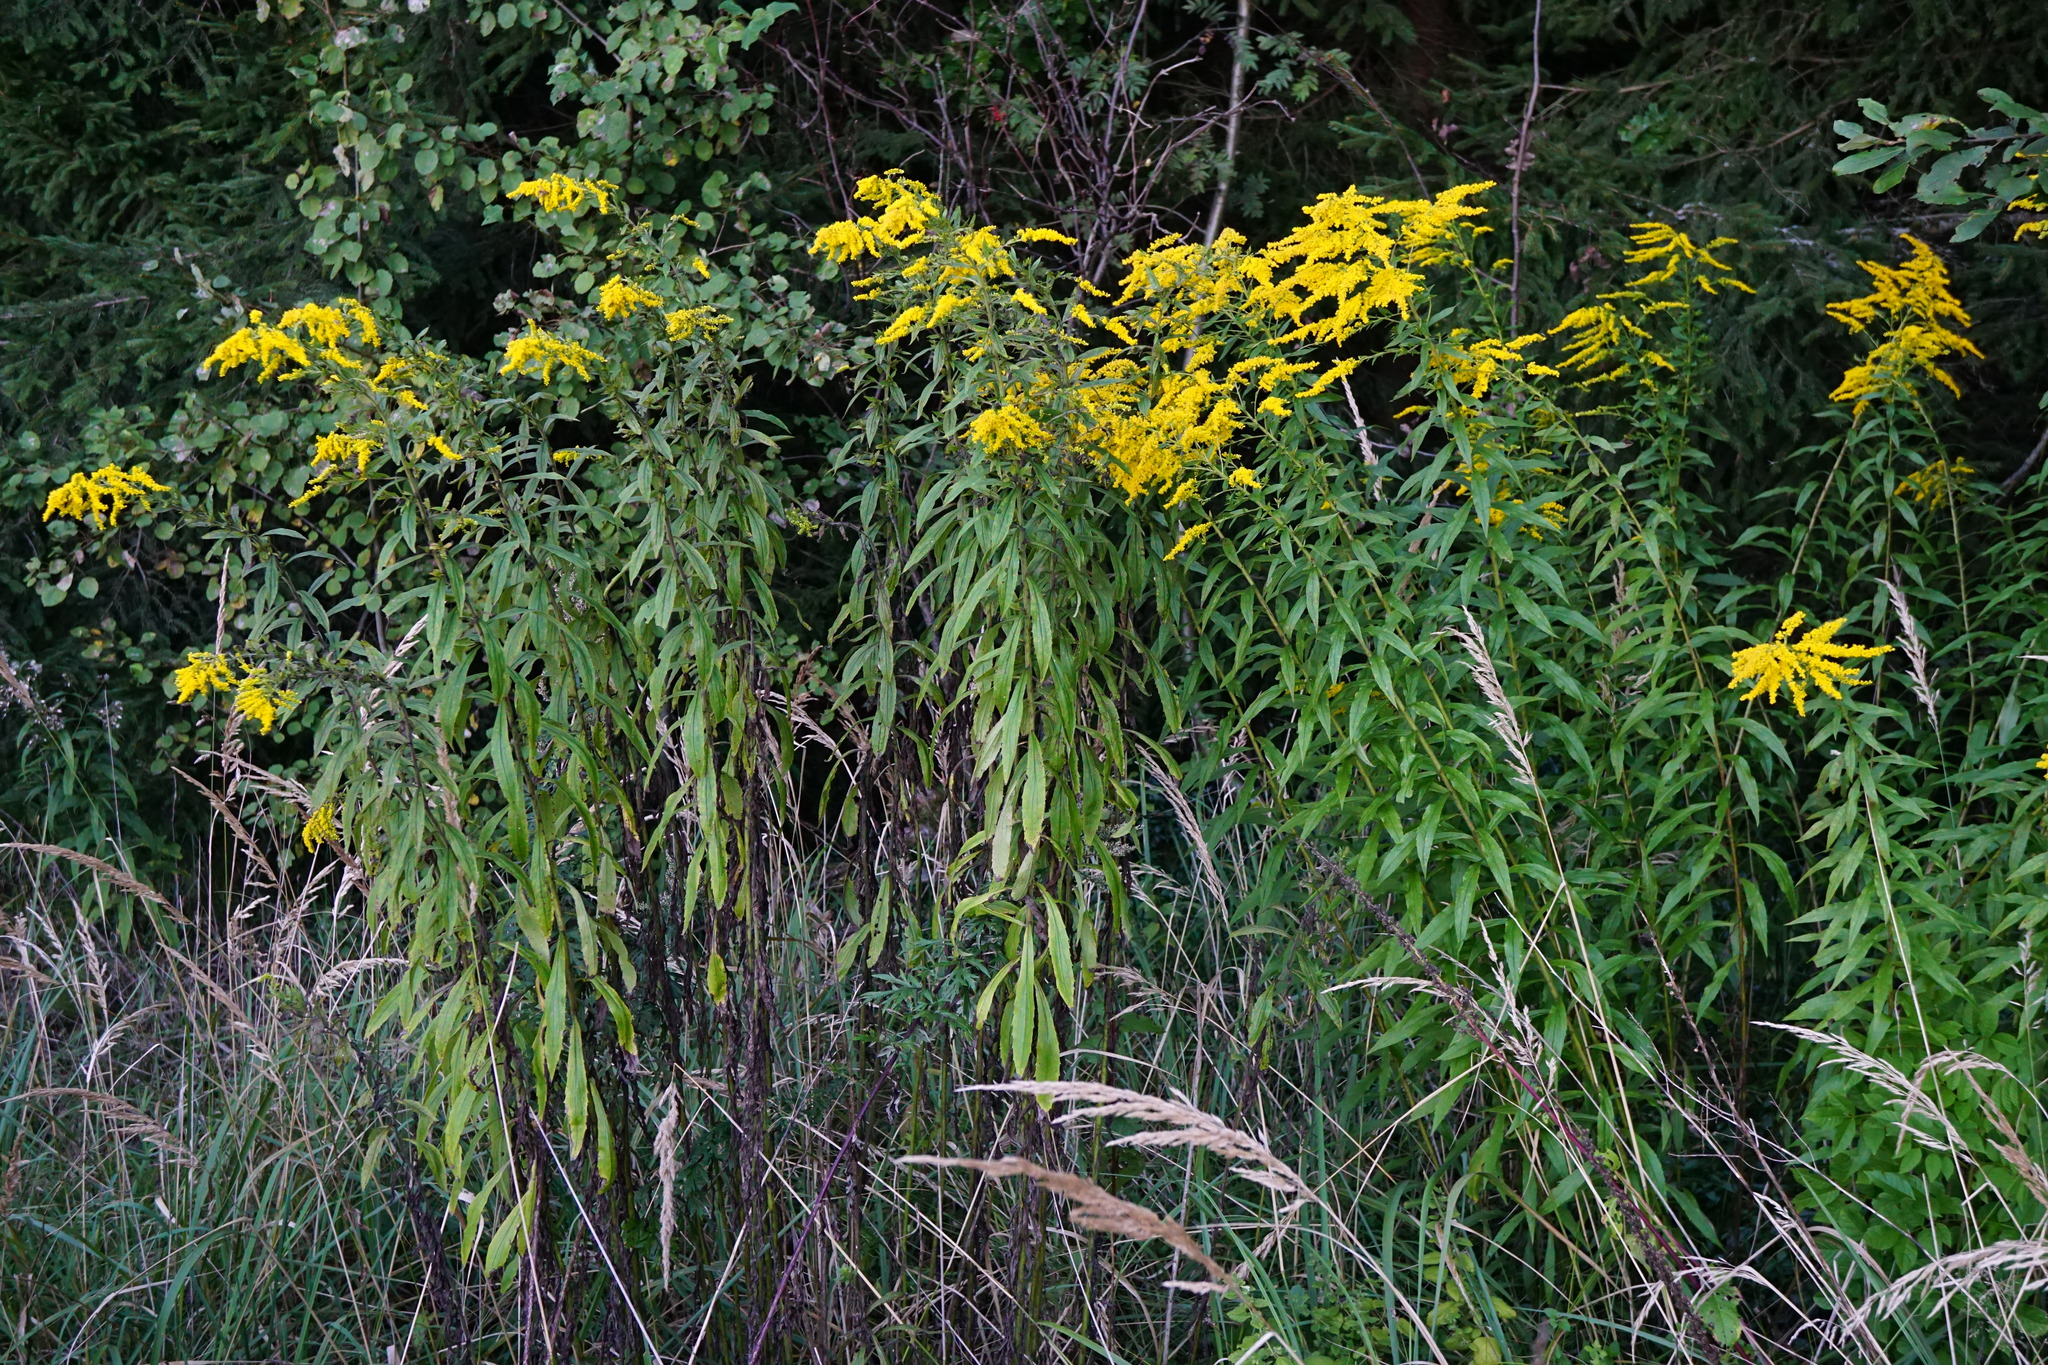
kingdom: Plantae
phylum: Tracheophyta
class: Magnoliopsida
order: Asterales
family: Asteraceae
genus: Solidago
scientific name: Solidago canadensis
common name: Canada goldenrod
